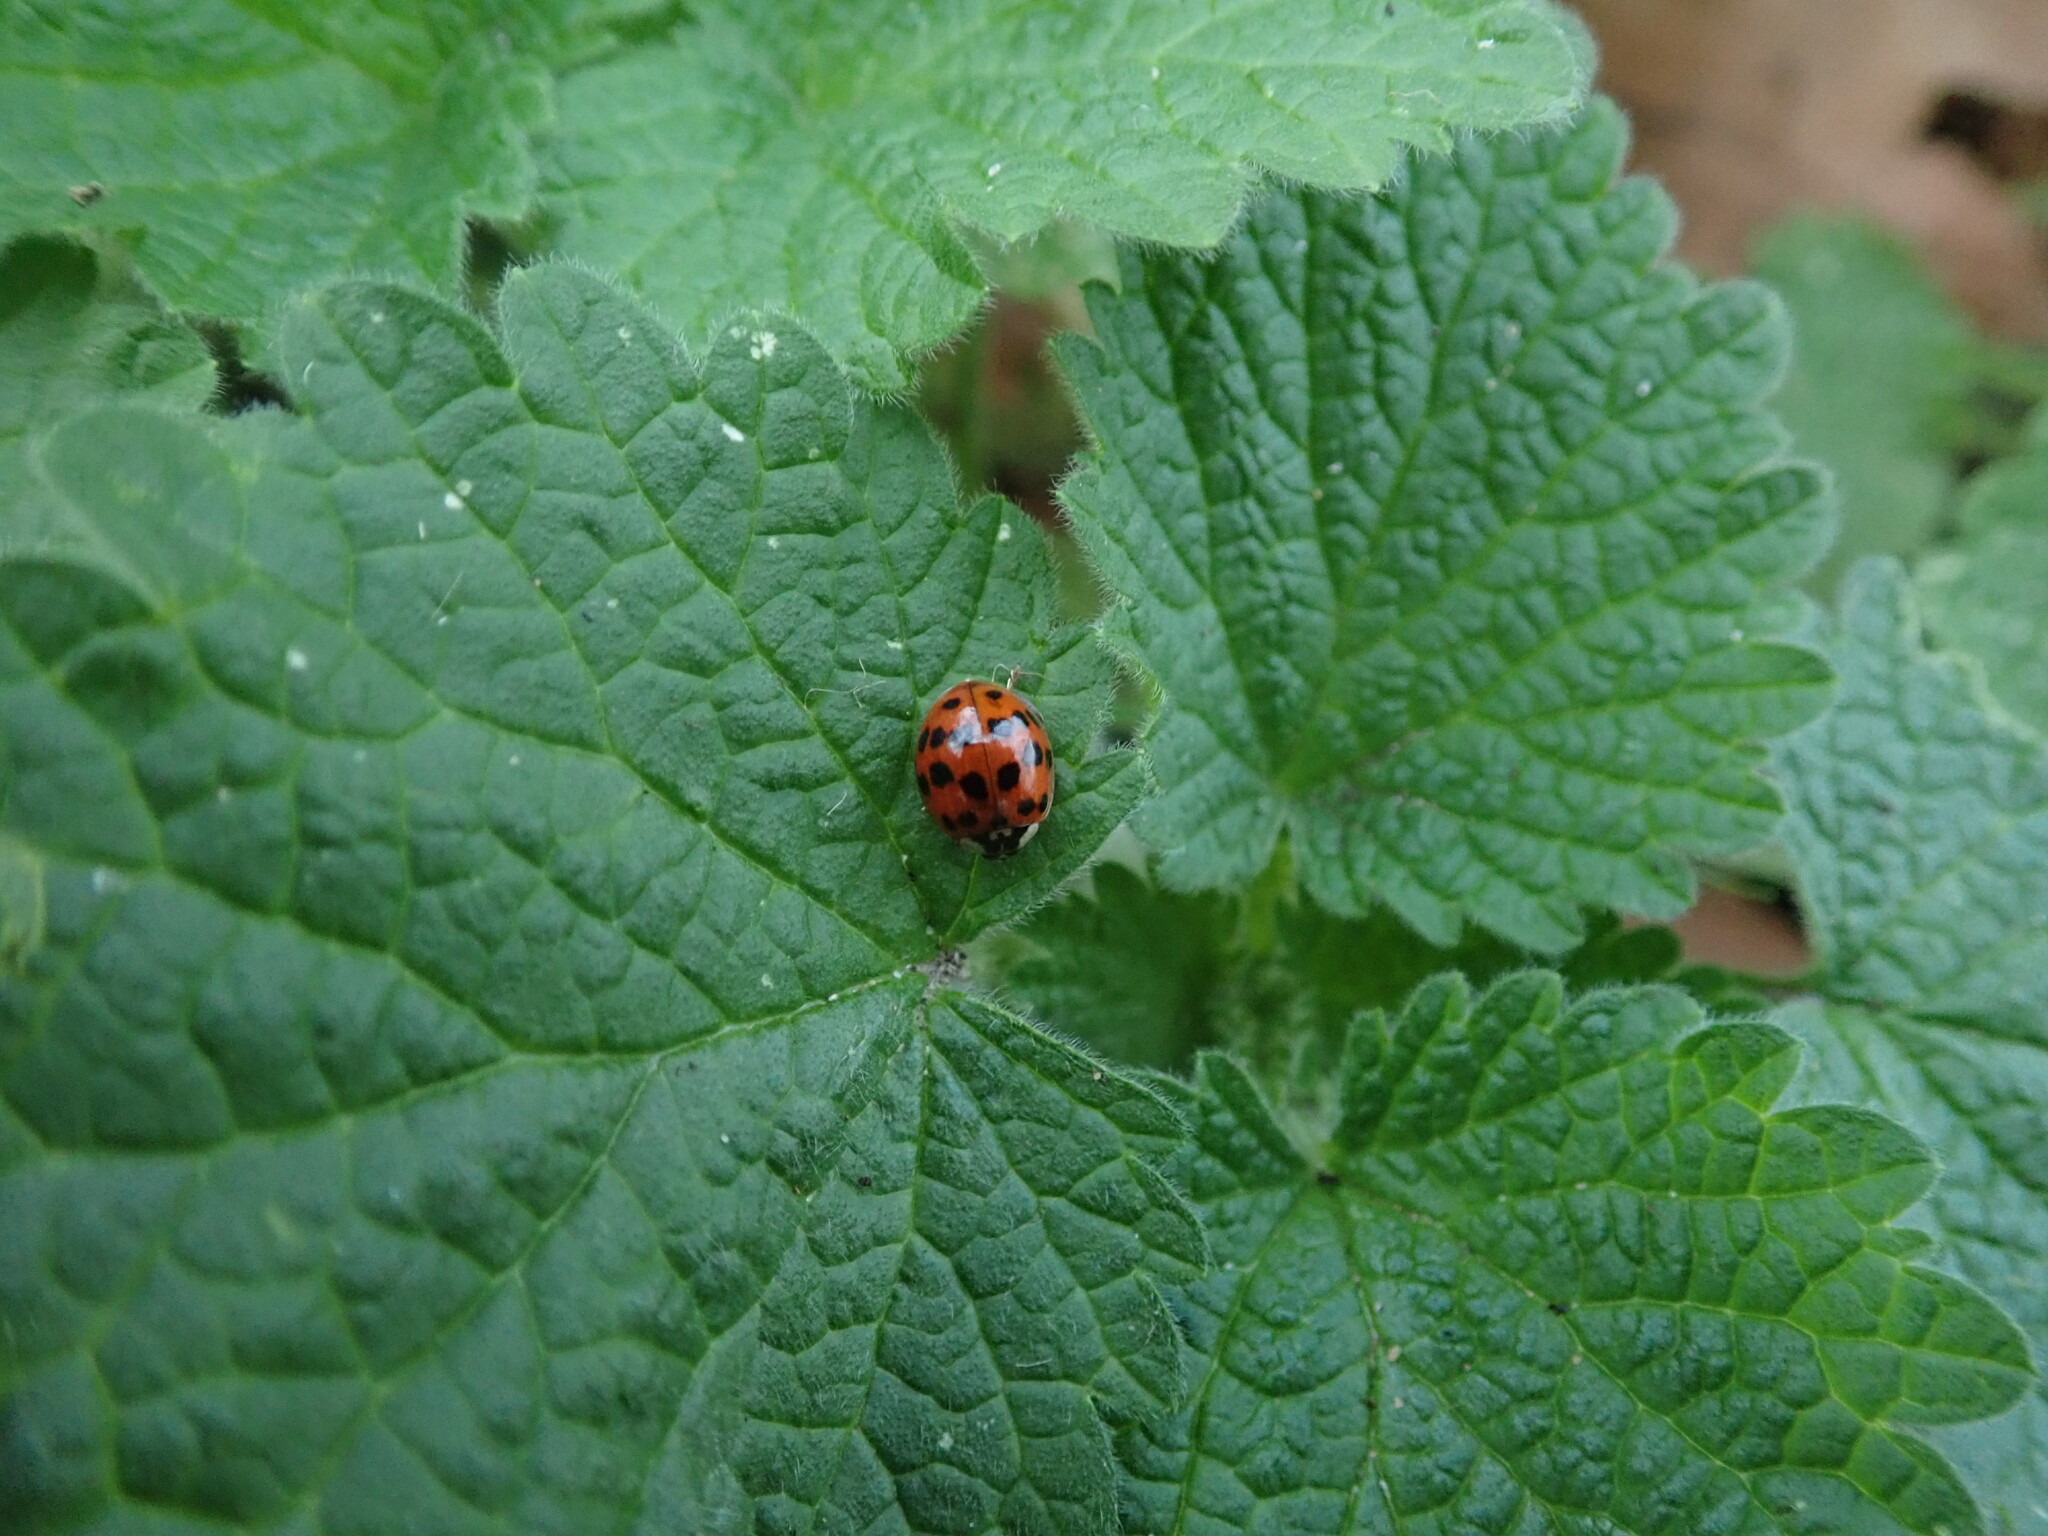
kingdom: Animalia
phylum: Arthropoda
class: Insecta
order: Coleoptera
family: Coccinellidae
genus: Harmonia
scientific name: Harmonia axyridis
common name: Harlequin ladybird
